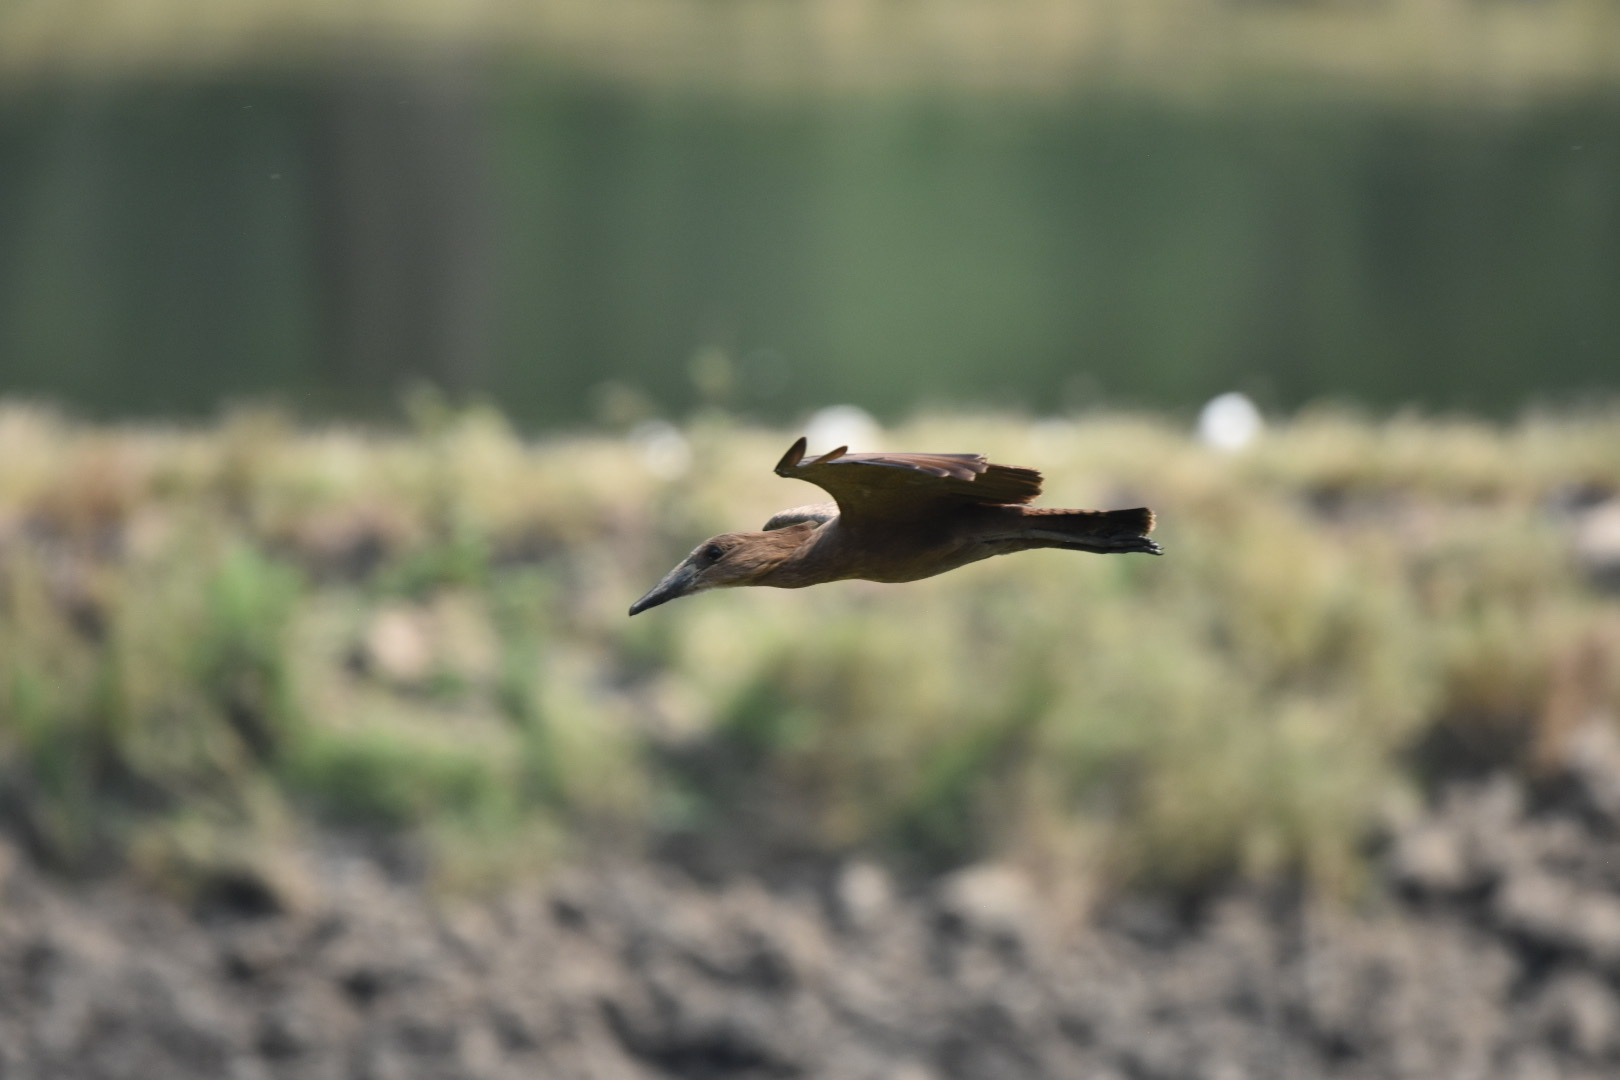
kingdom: Animalia
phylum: Chordata
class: Aves
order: Pelecaniformes
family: Scopidae
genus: Scopus
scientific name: Scopus umbretta
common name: Hamerkop
